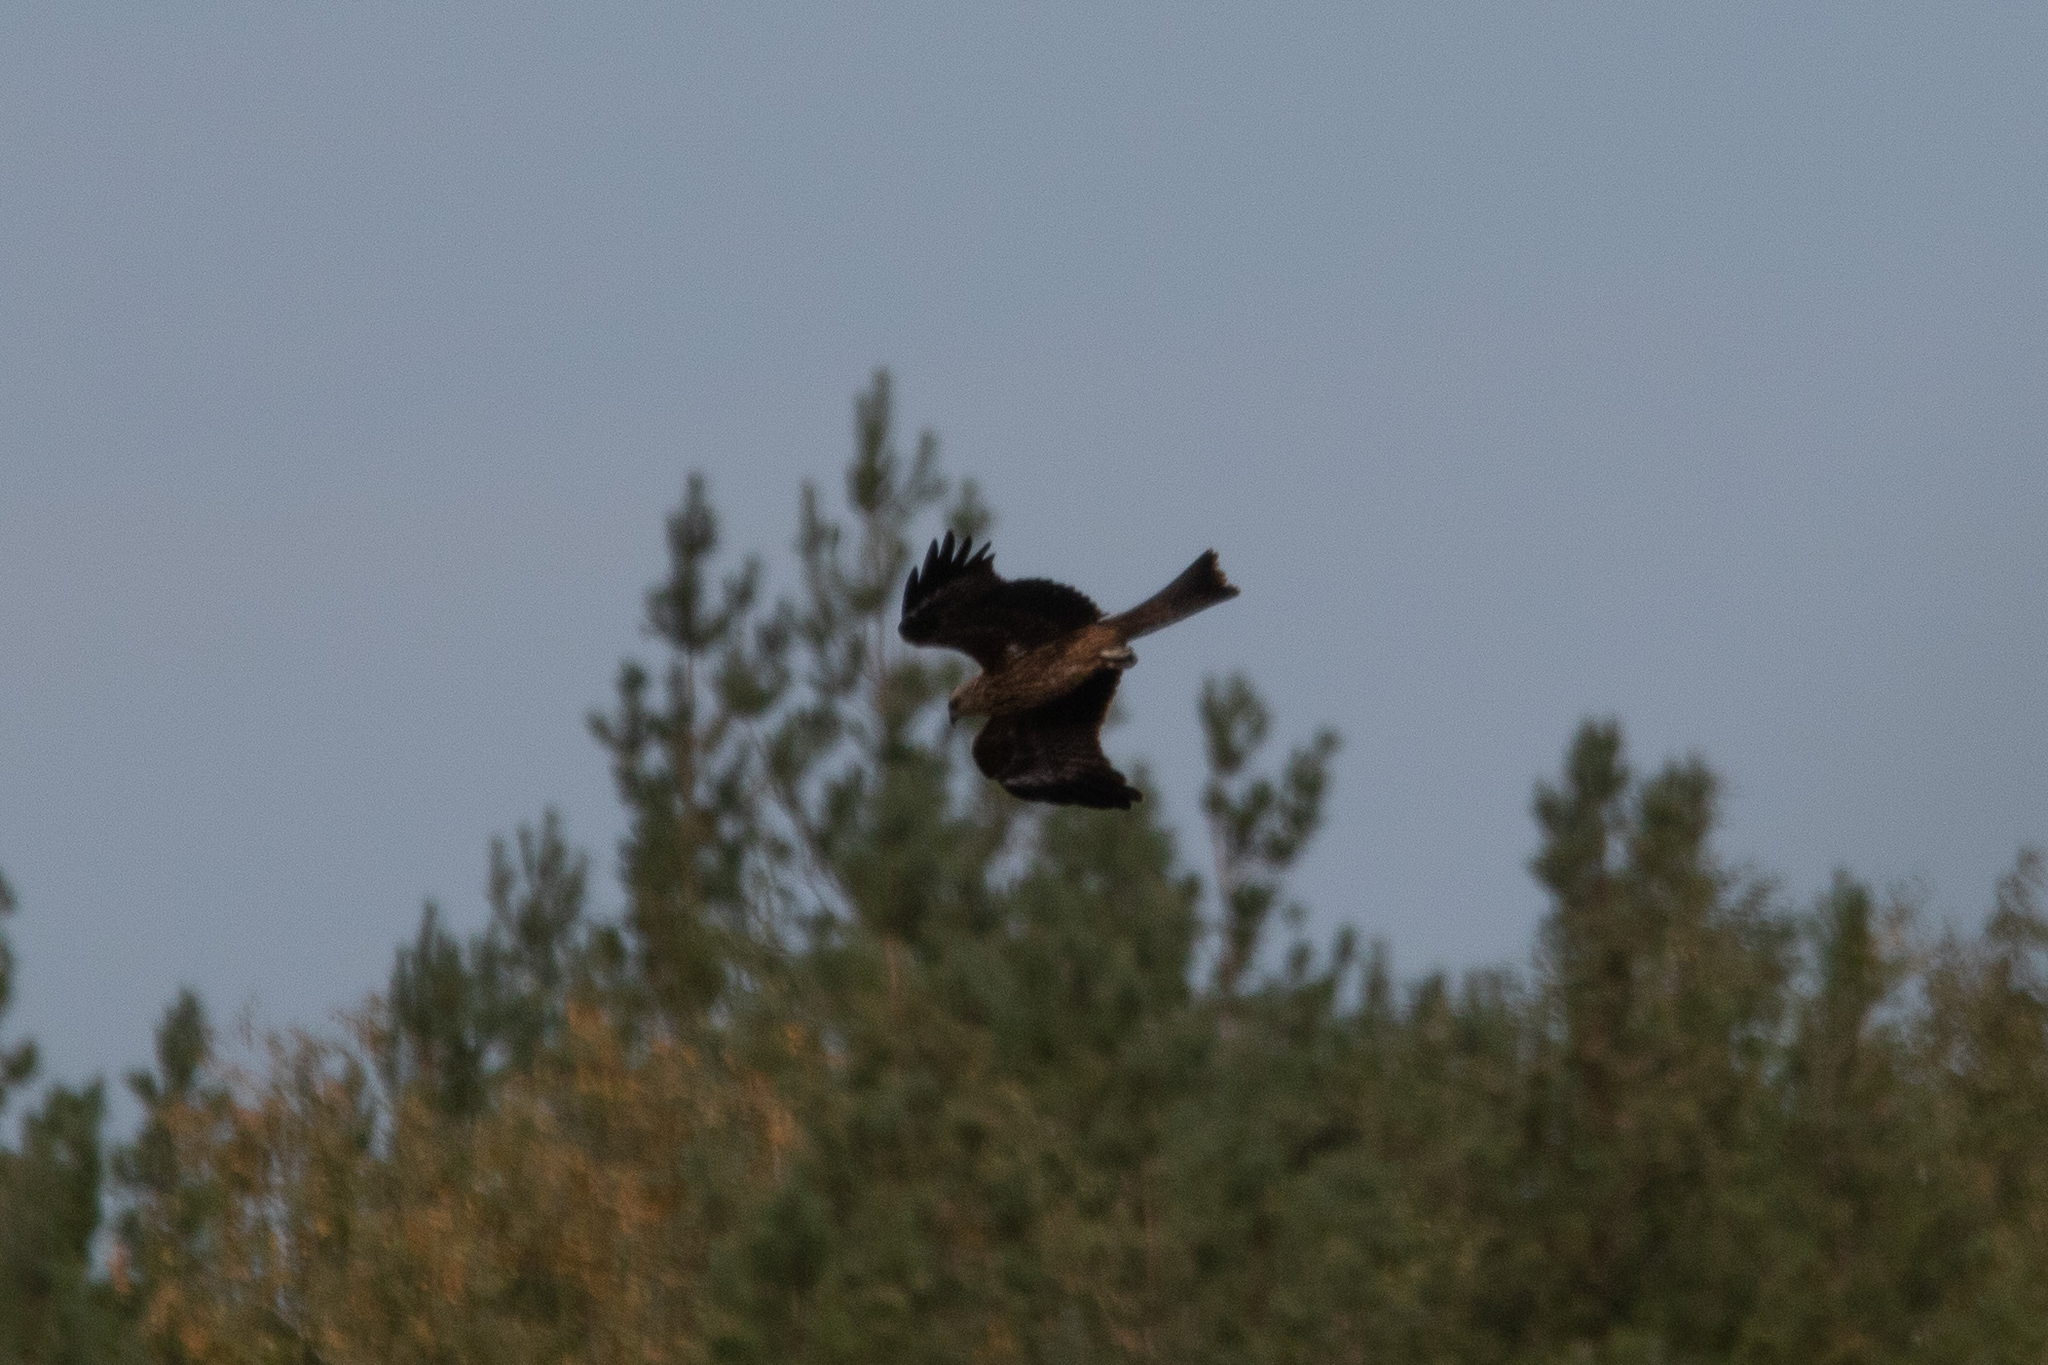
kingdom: Animalia
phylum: Chordata
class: Aves
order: Accipitriformes
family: Accipitridae
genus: Milvus
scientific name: Milvus migrans
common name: Black kite
